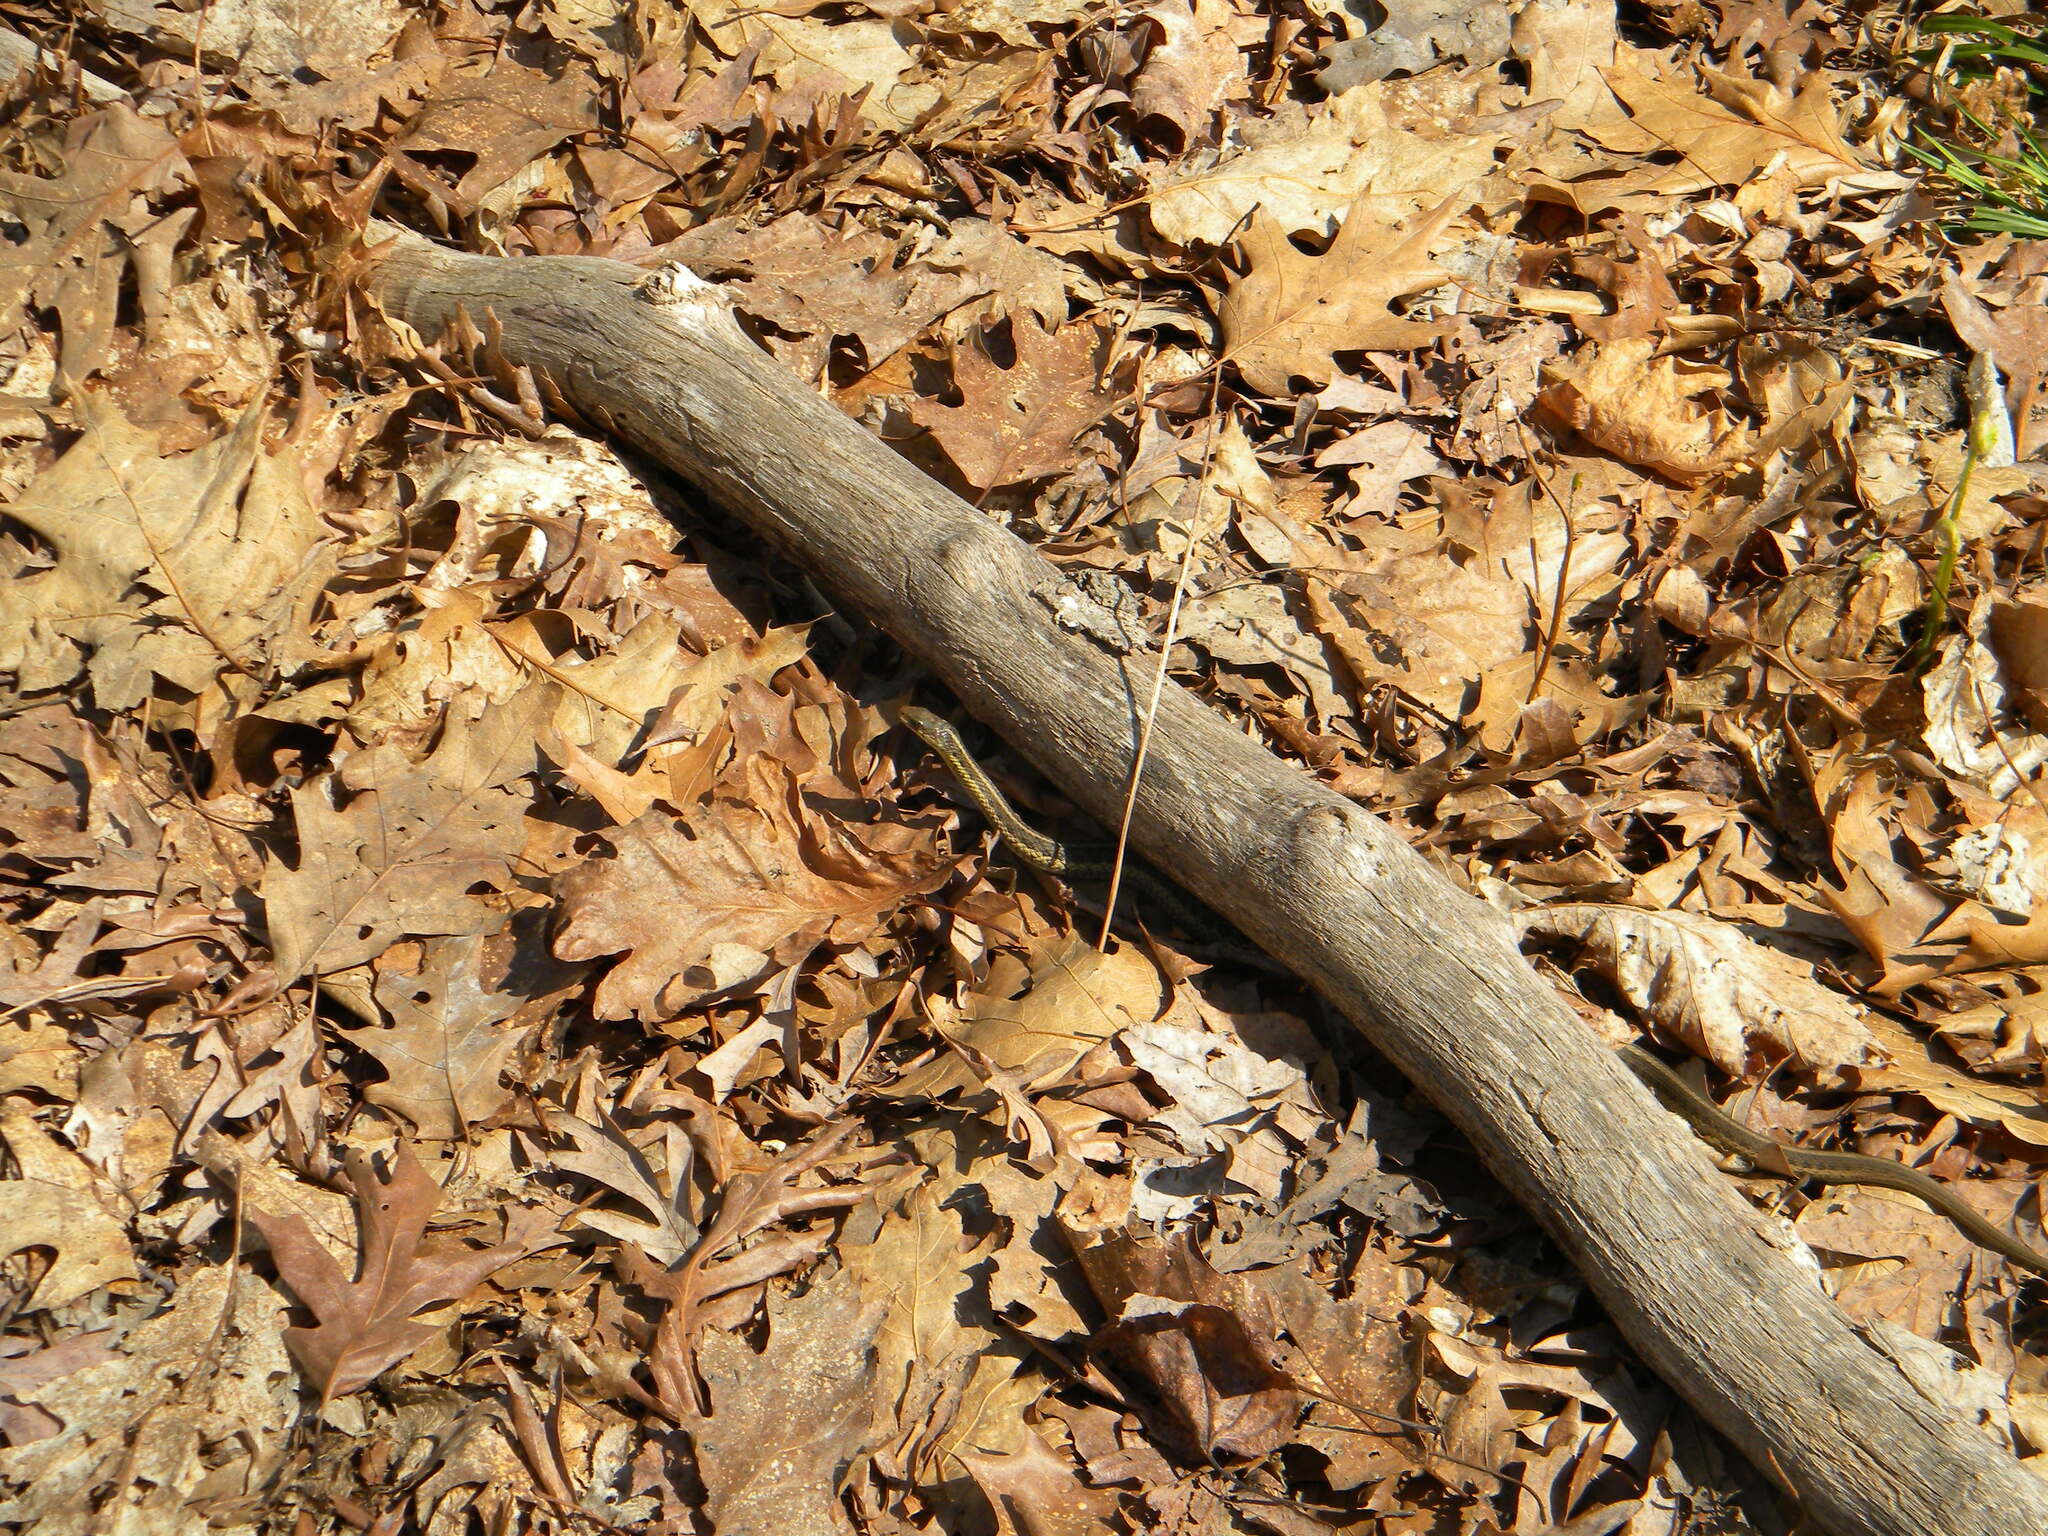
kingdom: Animalia
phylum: Chordata
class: Squamata
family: Colubridae
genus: Thamnophis
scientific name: Thamnophis sirtalis
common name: Common garter snake
